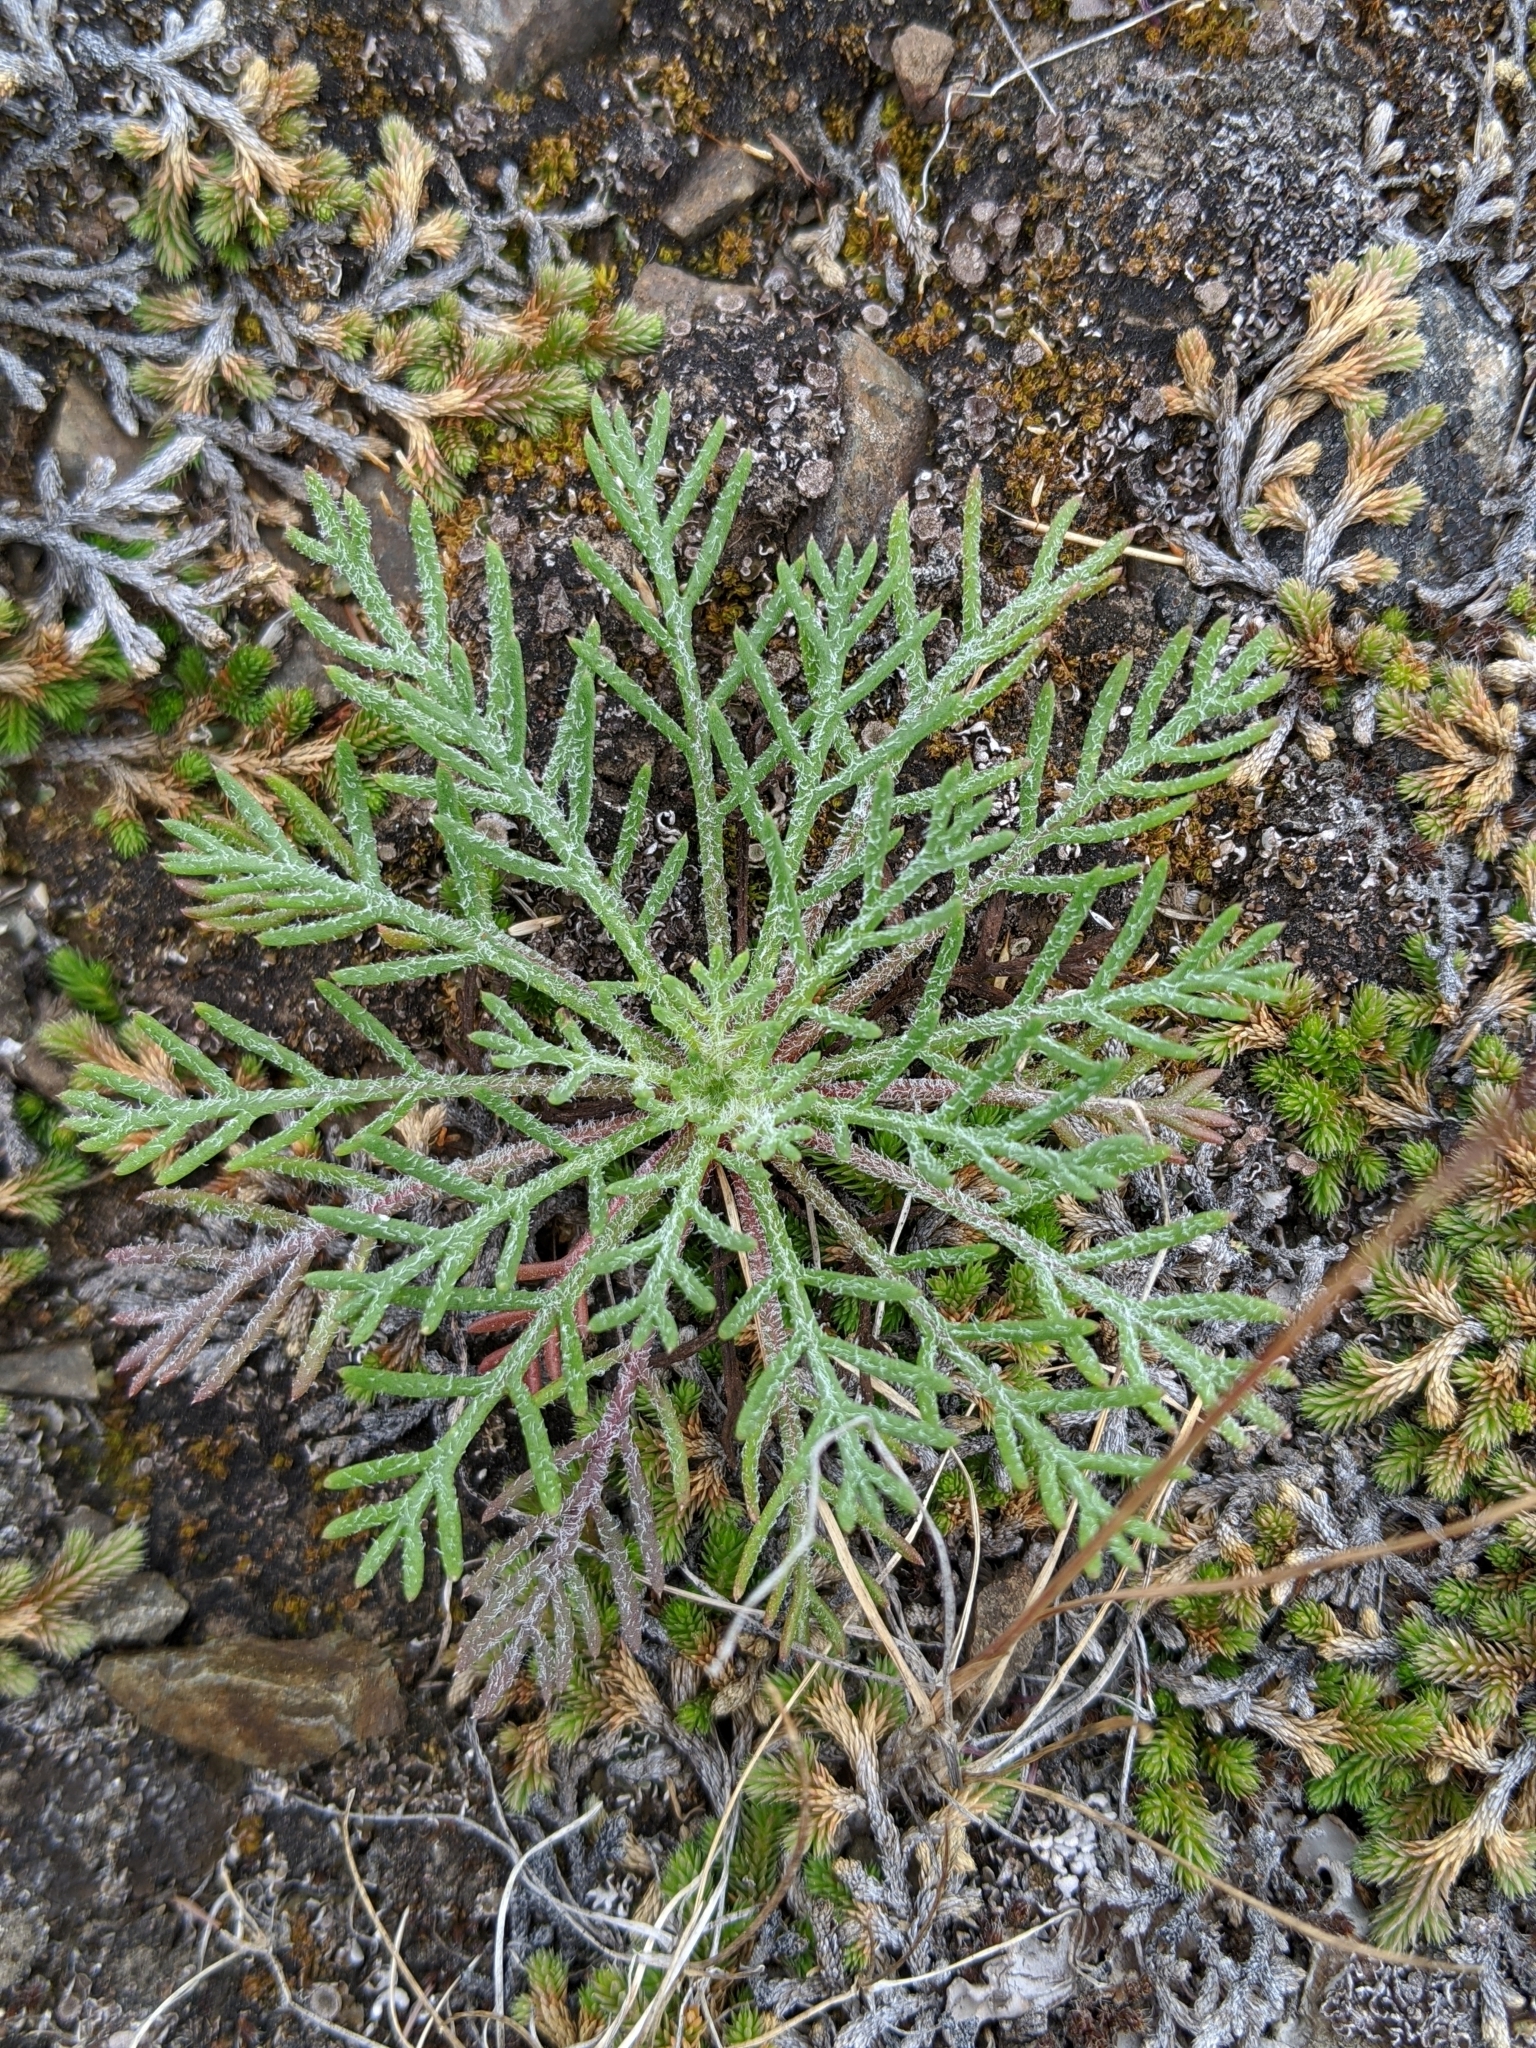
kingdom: Plantae
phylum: Tracheophyta
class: Magnoliopsida
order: Ericales
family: Polemoniaceae
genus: Ipomopsis
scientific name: Ipomopsis aggregata
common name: Scarlet gilia
